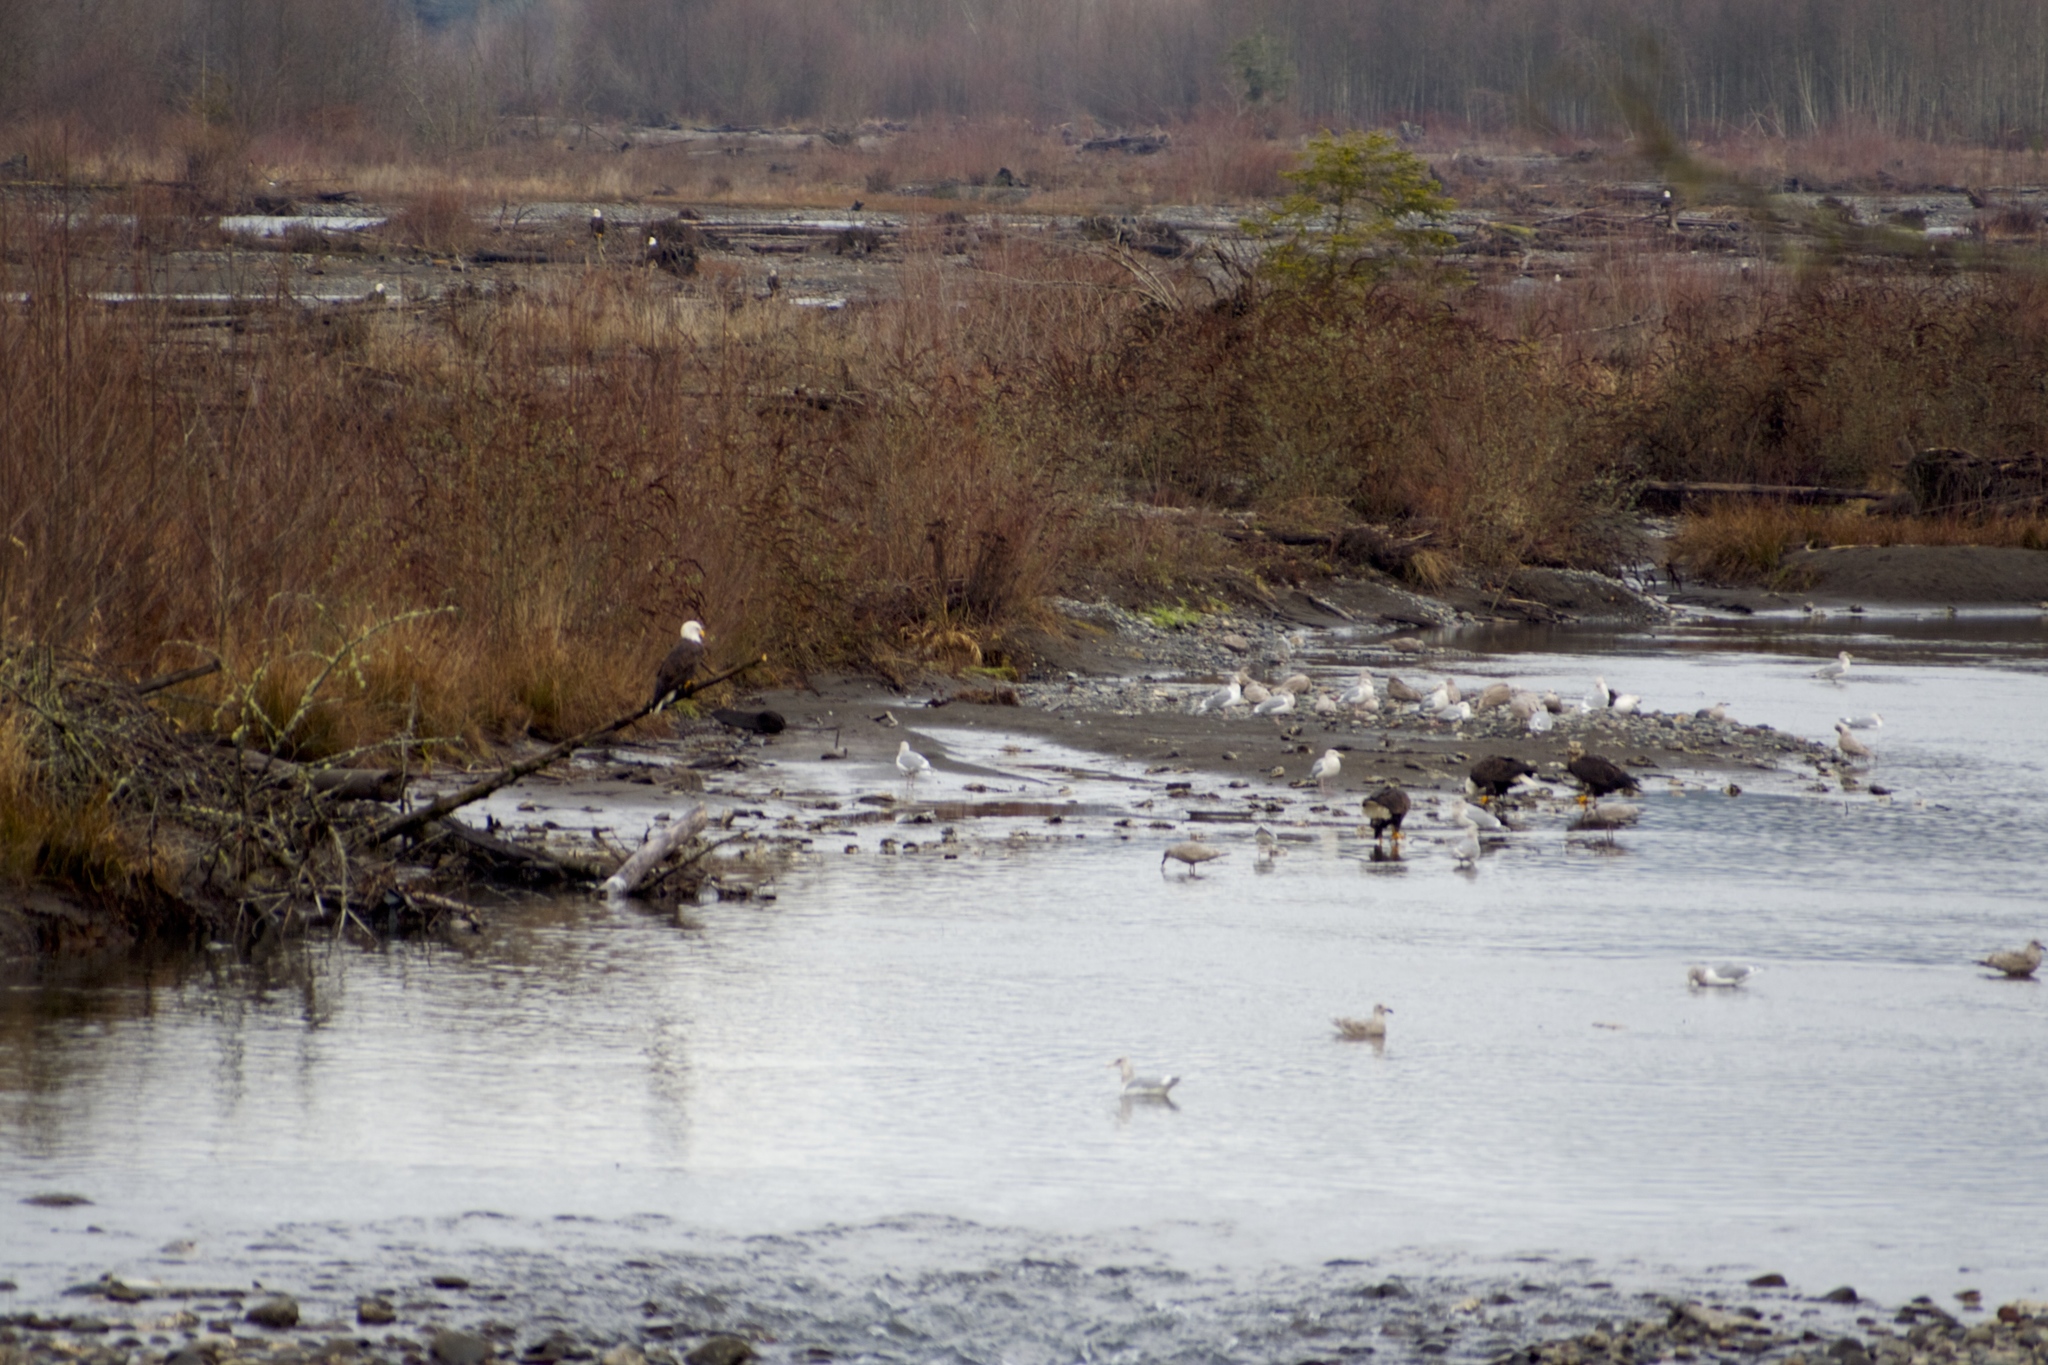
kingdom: Animalia
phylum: Chordata
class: Aves
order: Accipitriformes
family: Accipitridae
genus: Haliaeetus
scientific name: Haliaeetus leucocephalus
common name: Bald eagle
